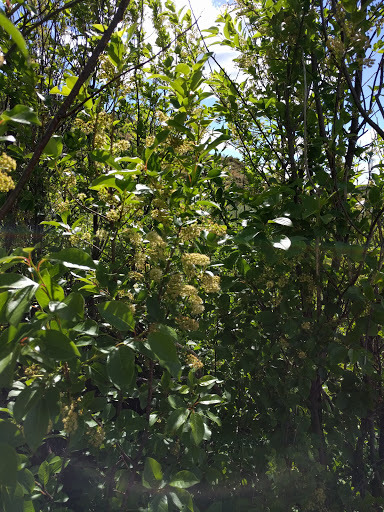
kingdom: Plantae
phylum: Tracheophyta
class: Magnoliopsida
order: Rosales
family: Rosaceae
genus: Prunus
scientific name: Prunus virginiana
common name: Chokecherry
